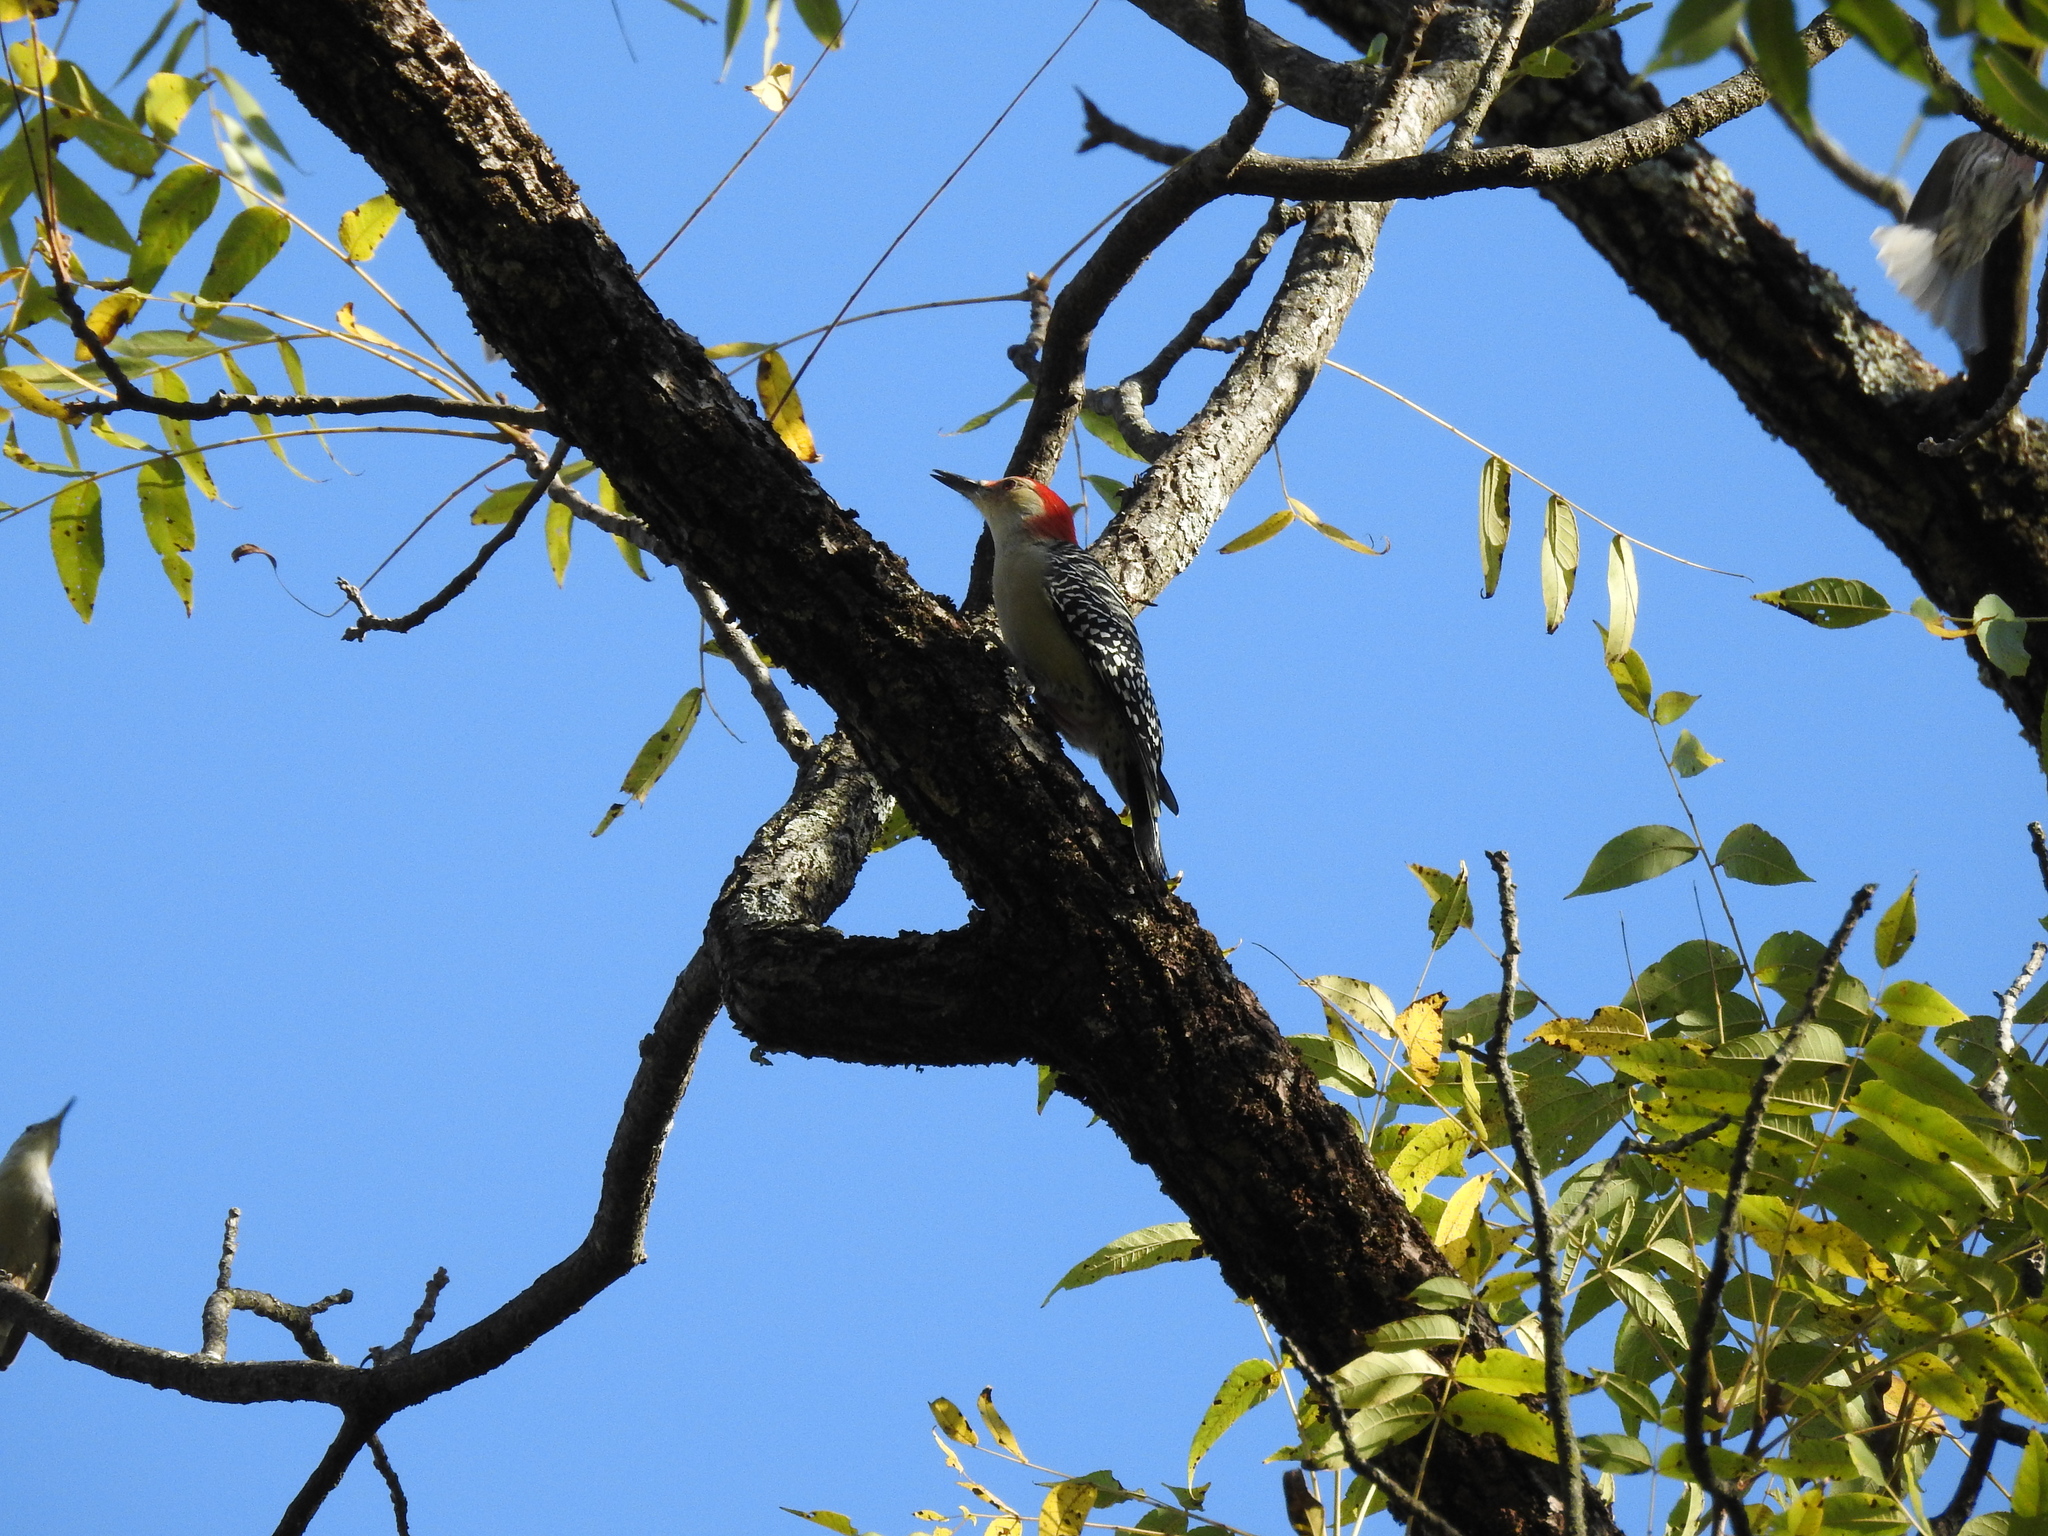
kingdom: Animalia
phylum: Chordata
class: Aves
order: Piciformes
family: Picidae
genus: Melanerpes
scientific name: Melanerpes carolinus
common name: Red-bellied woodpecker
